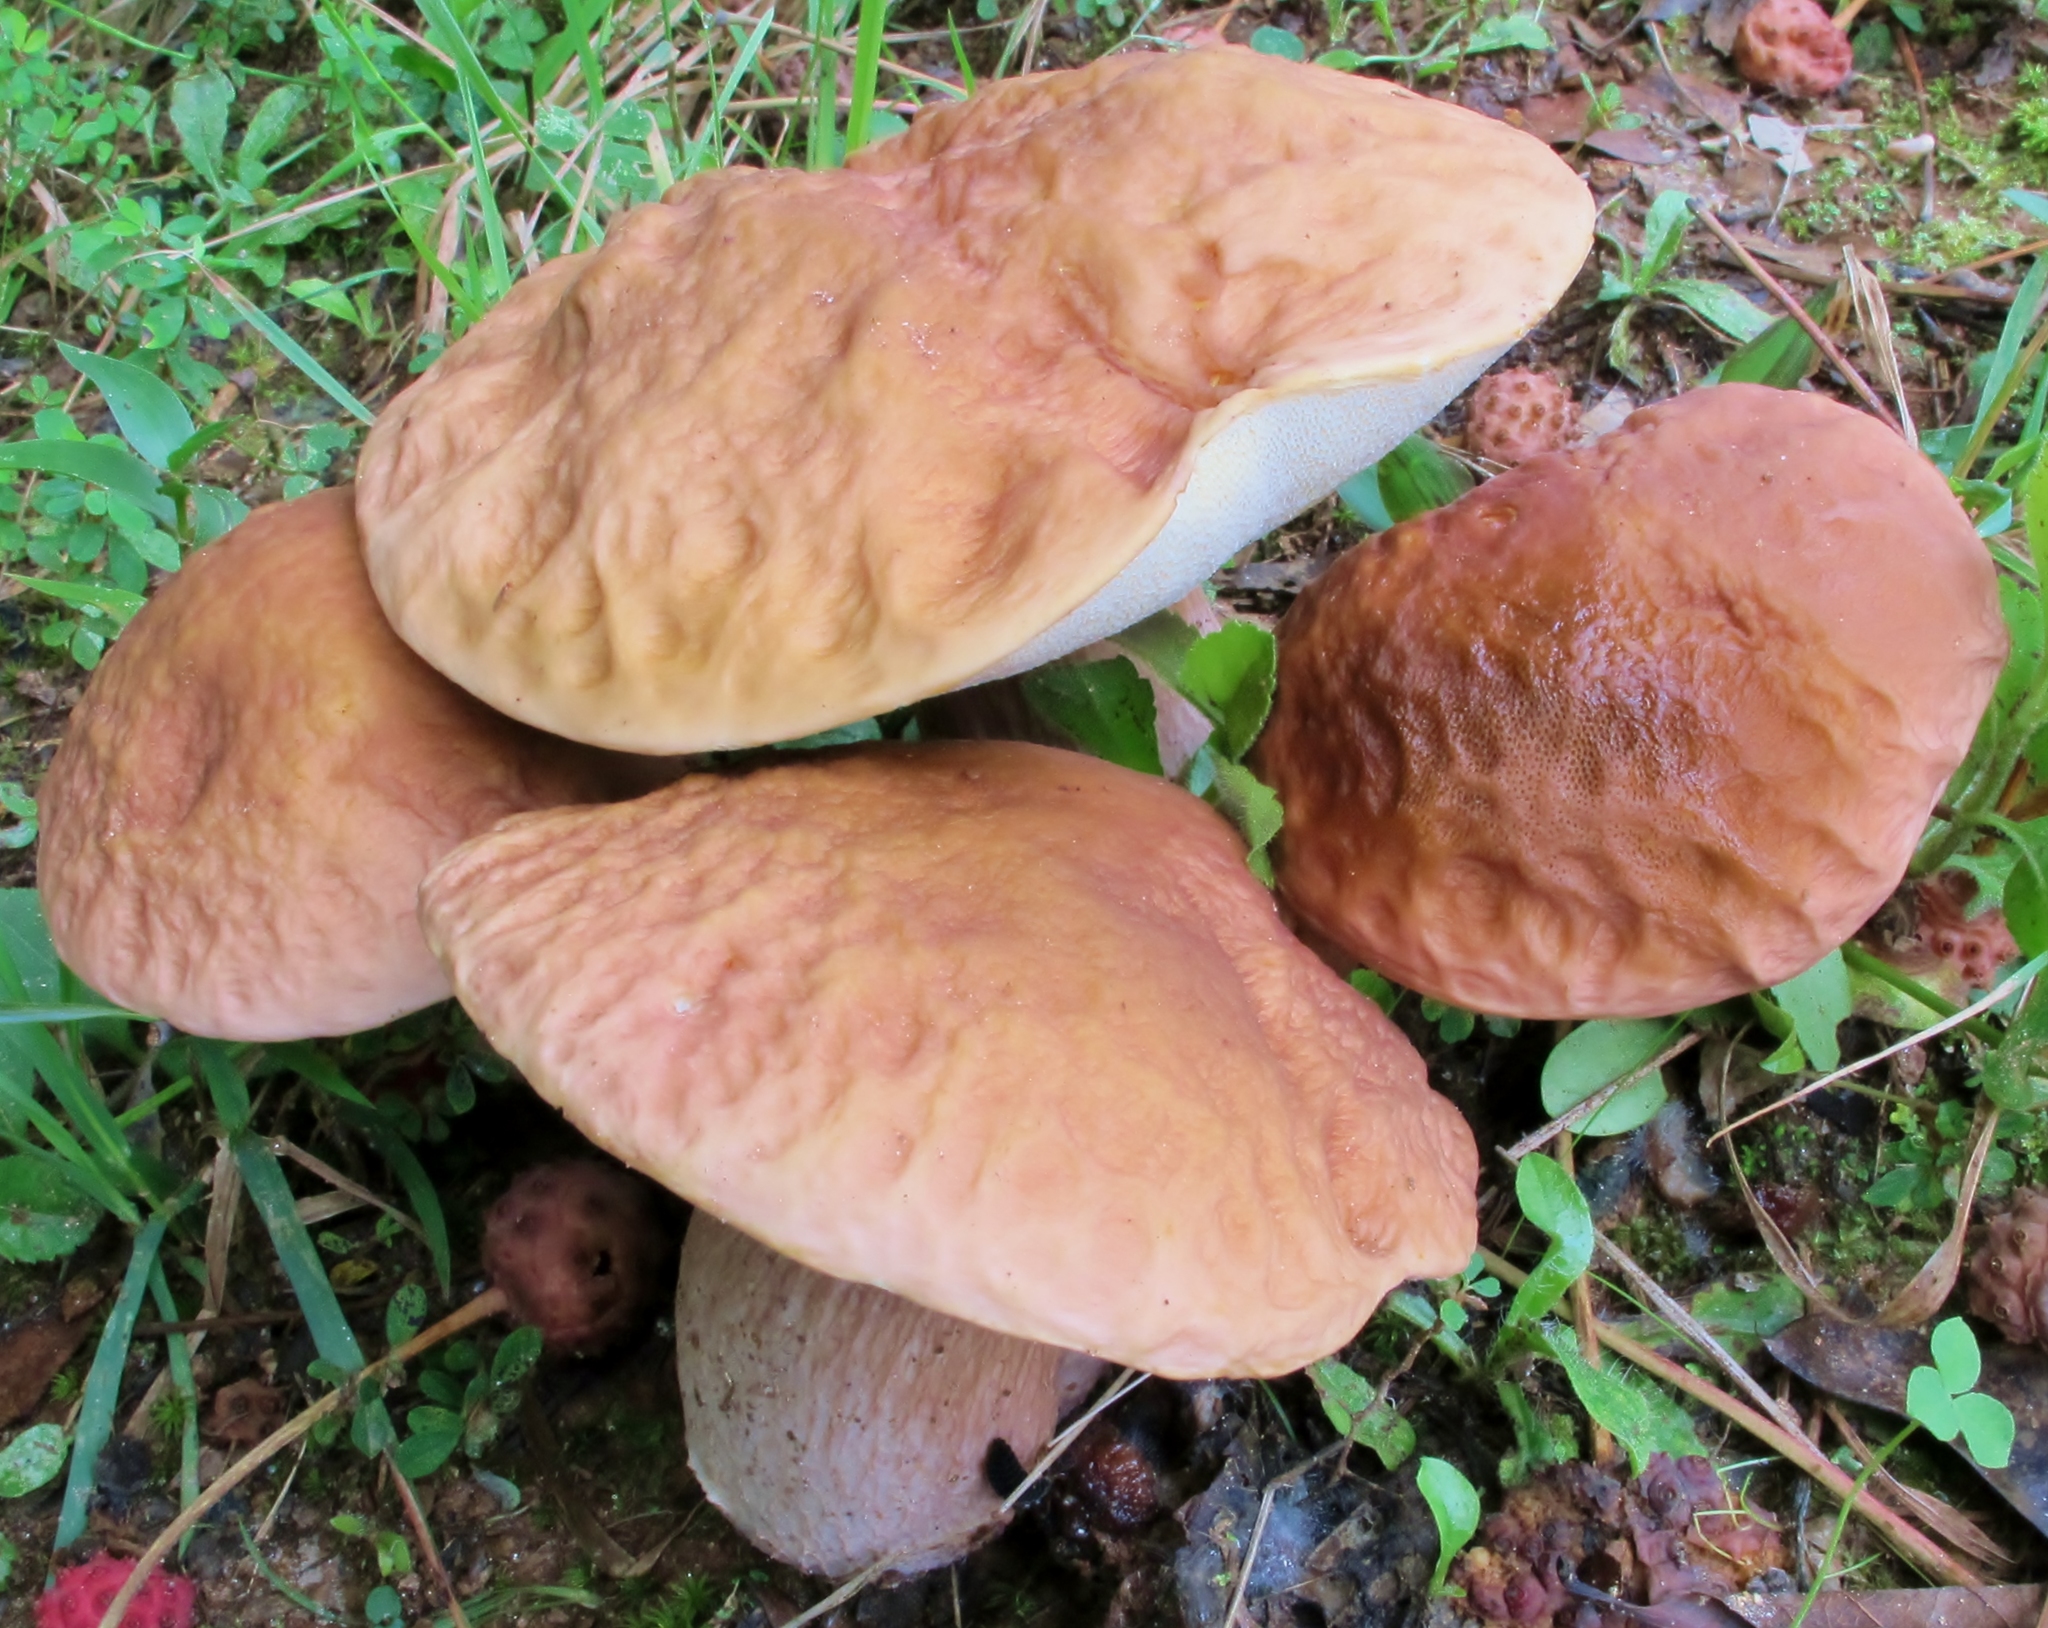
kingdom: Fungi
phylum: Basidiomycota
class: Agaricomycetes
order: Boletales
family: Boletaceae
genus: Xanthoconium
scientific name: Xanthoconium separans
